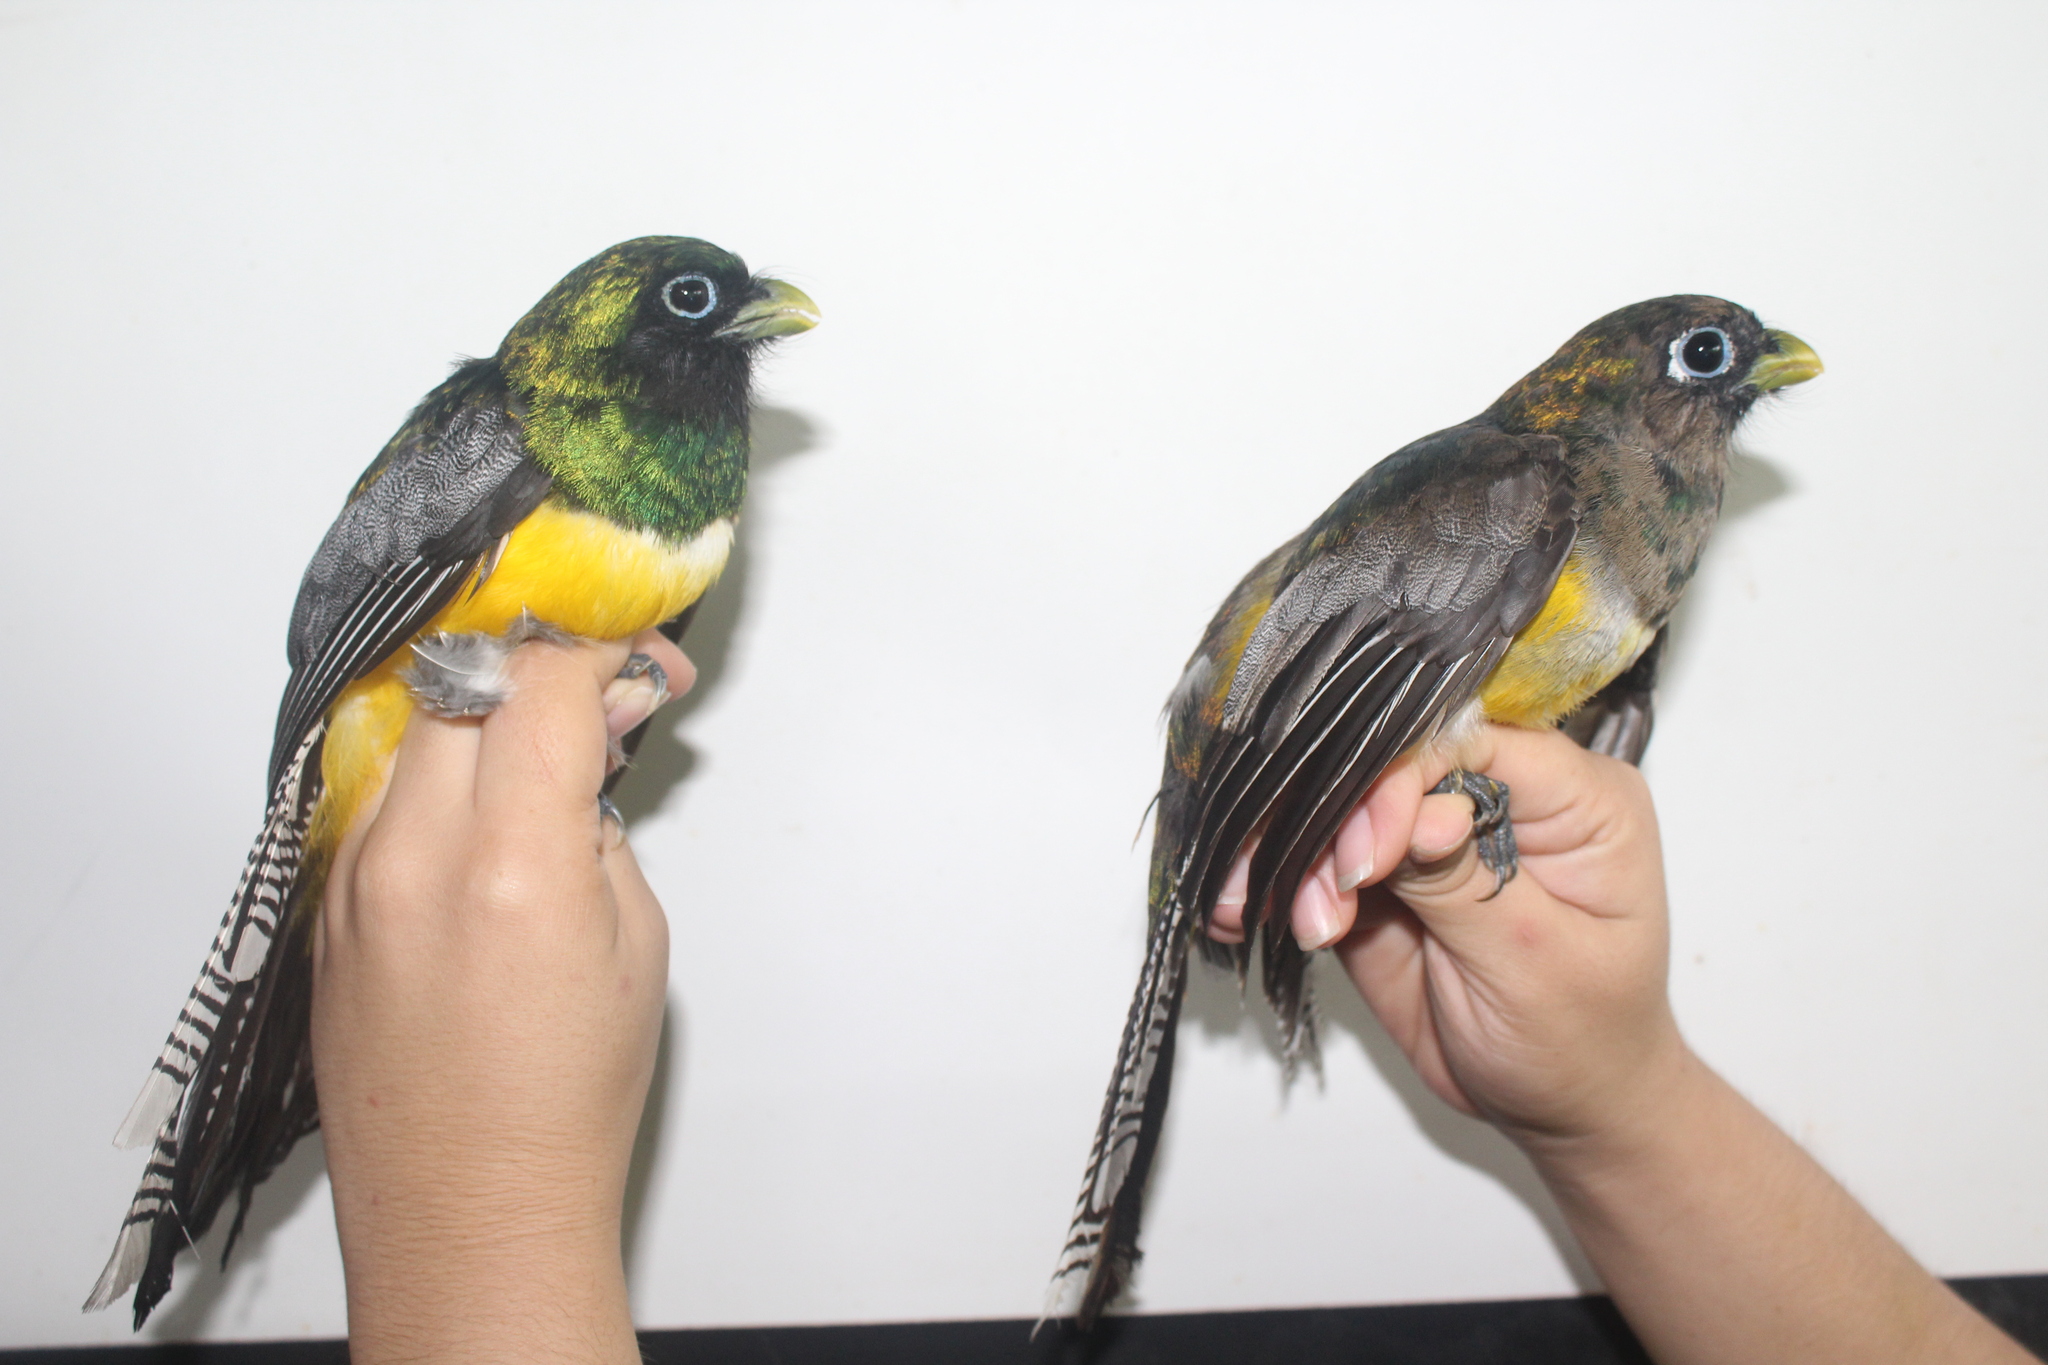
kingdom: Animalia
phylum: Chordata
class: Aves
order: Trogoniformes
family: Trogonidae
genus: Trogon
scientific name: Trogon rufus
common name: Black-throated trogon
